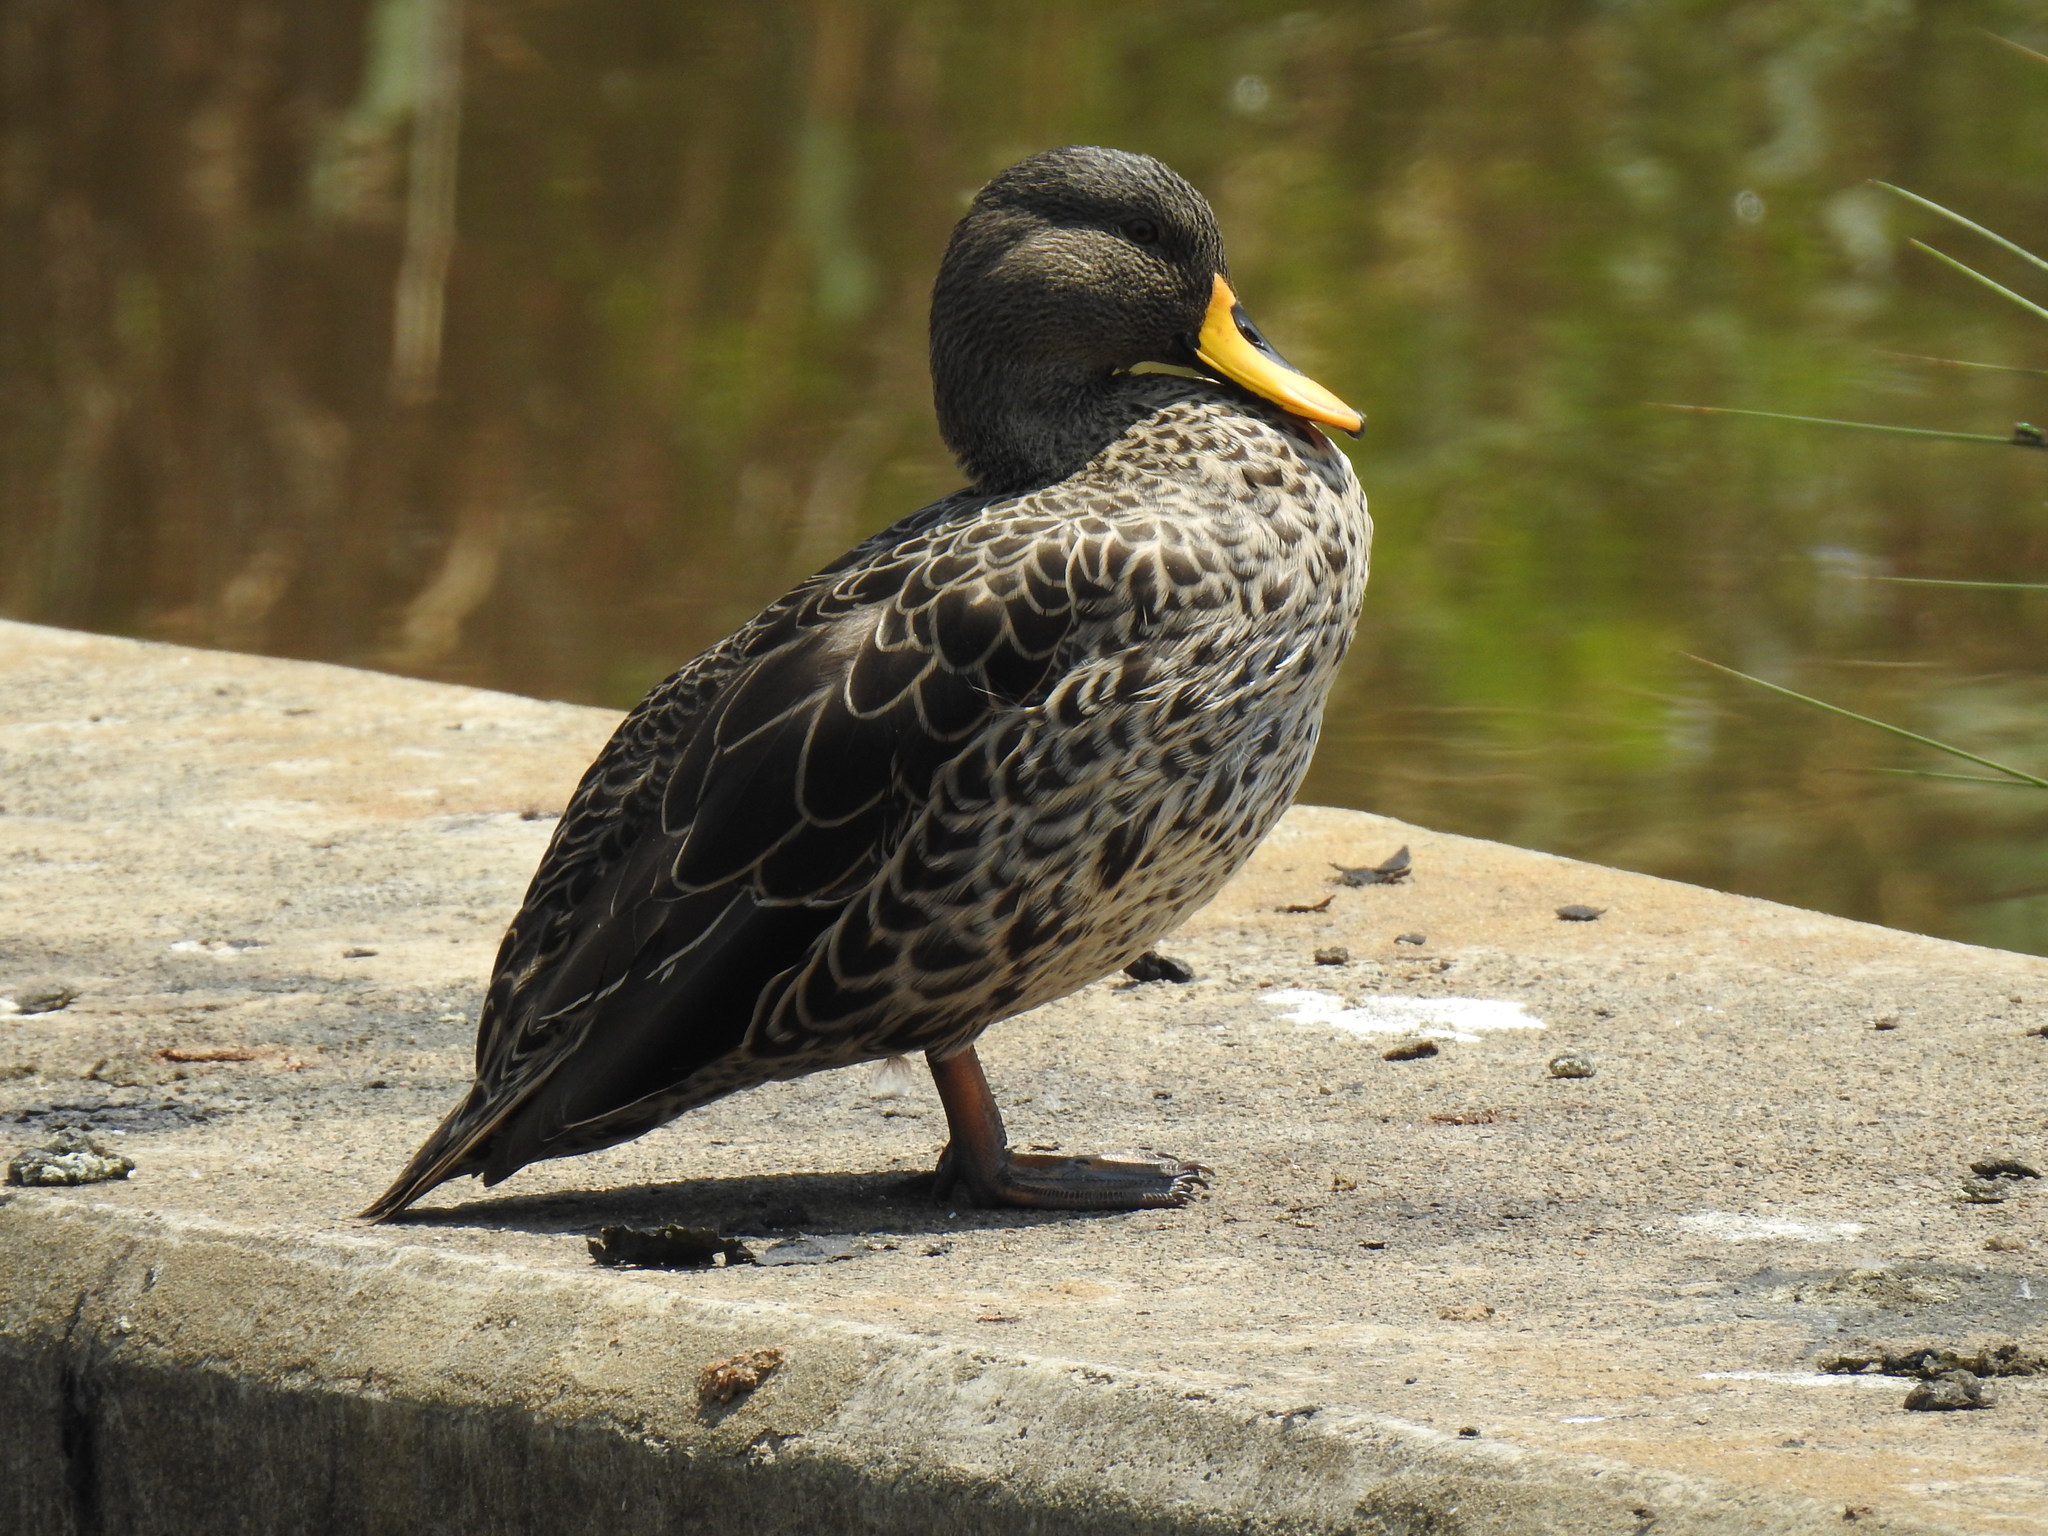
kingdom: Animalia
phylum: Chordata
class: Aves
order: Anseriformes
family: Anatidae
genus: Anas
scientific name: Anas undulata
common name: Yellow-billed duck
